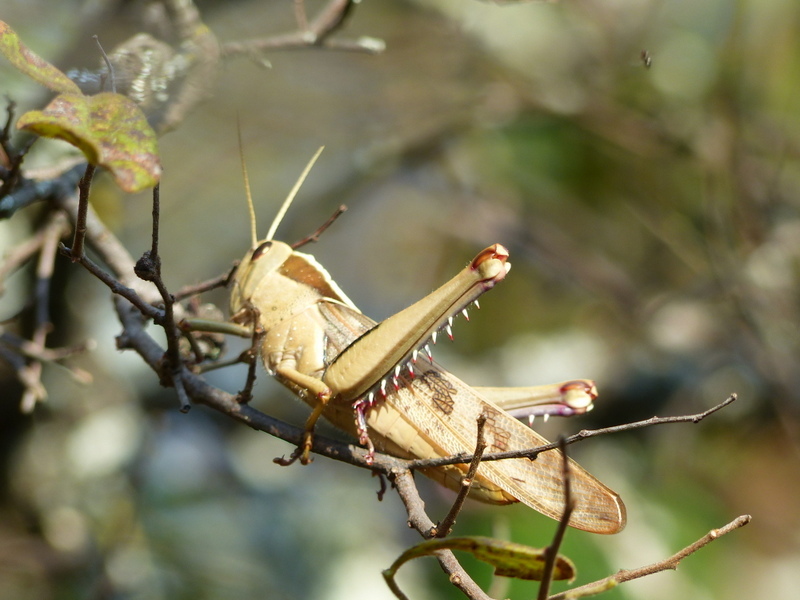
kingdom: Animalia
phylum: Arthropoda
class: Insecta
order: Orthoptera
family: Acrididae
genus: Acanthacris
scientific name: Acanthacris ruficornis
